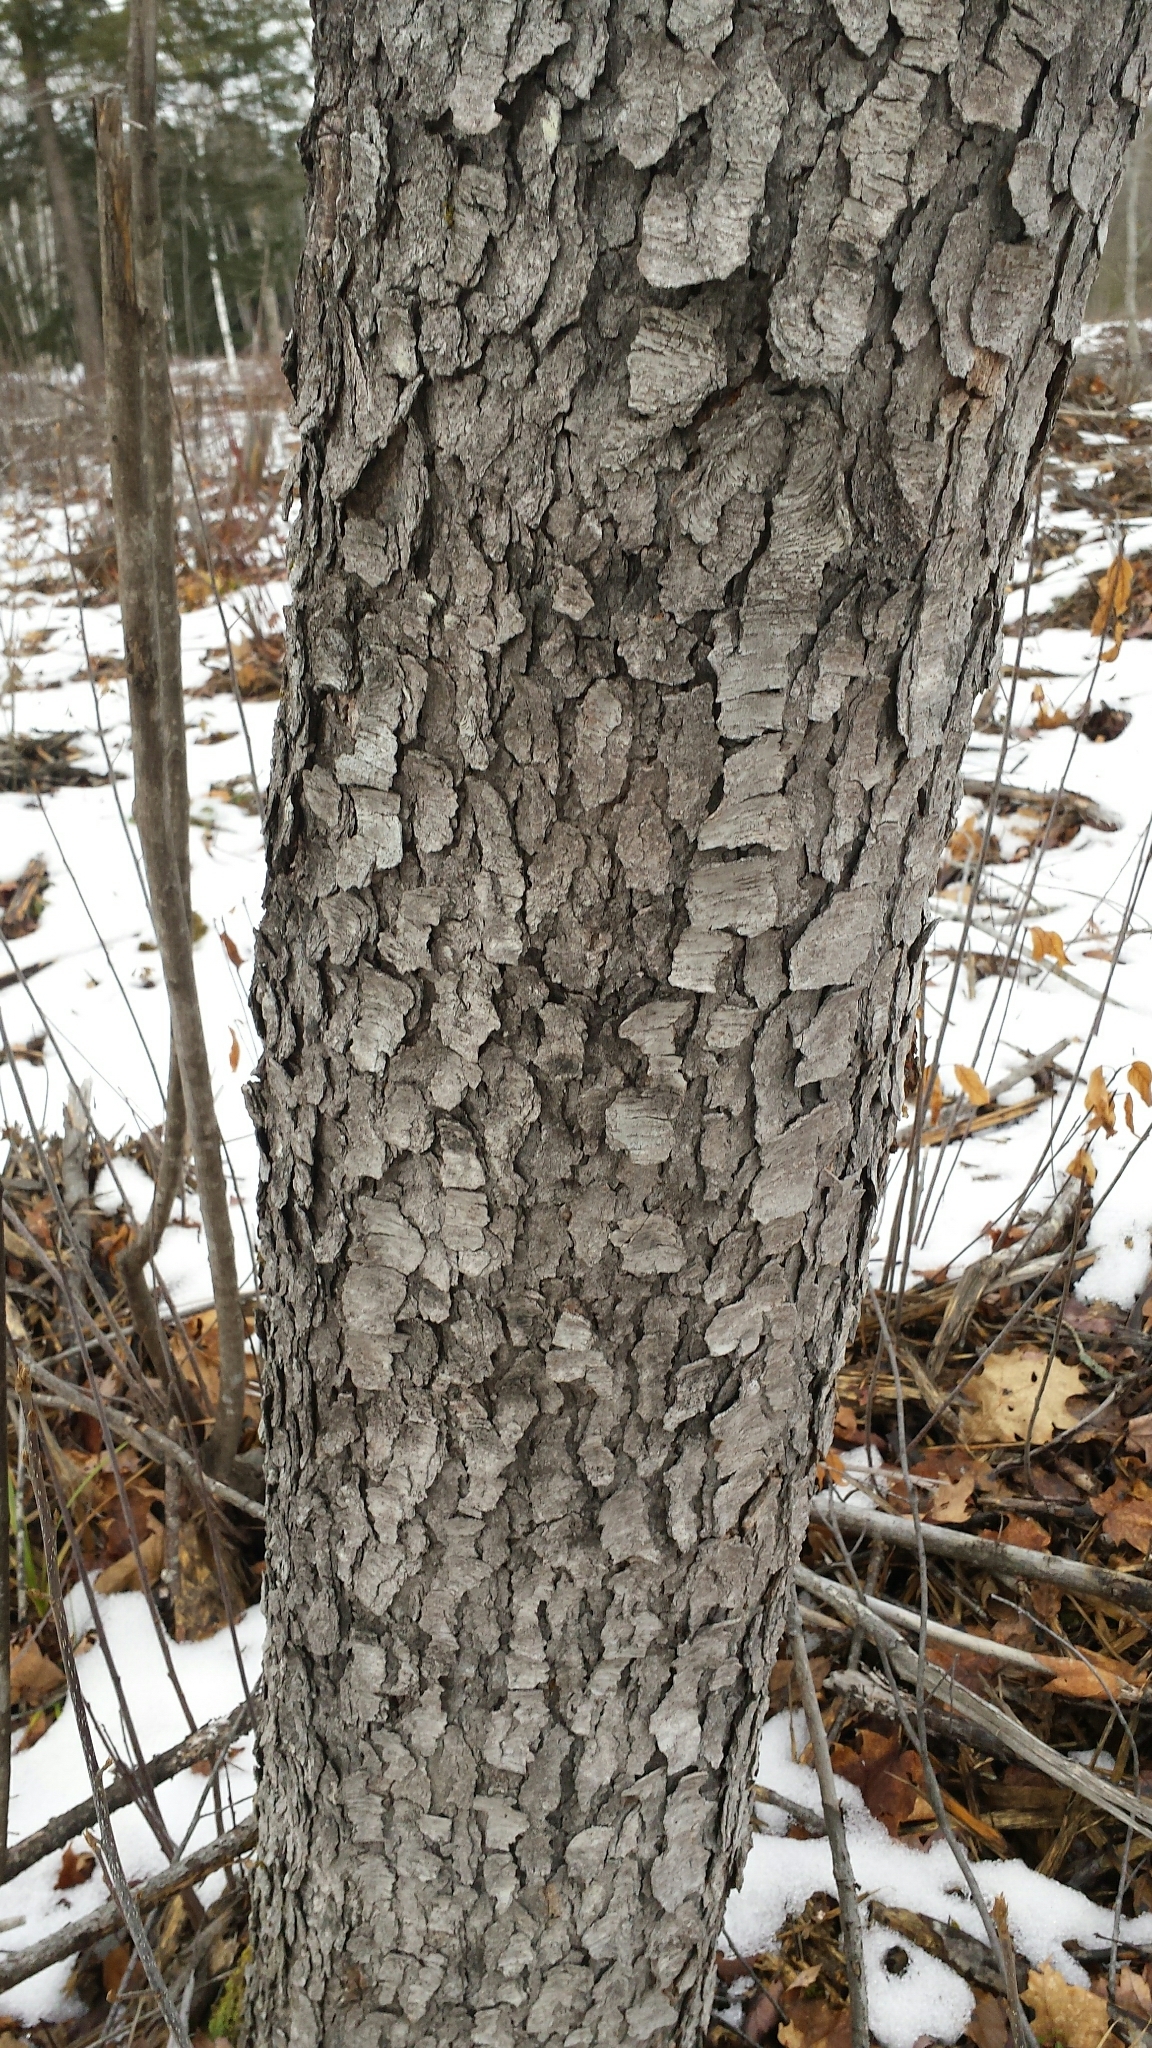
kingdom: Plantae
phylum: Tracheophyta
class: Magnoliopsida
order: Rosales
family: Rosaceae
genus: Prunus
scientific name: Prunus serotina
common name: Black cherry
